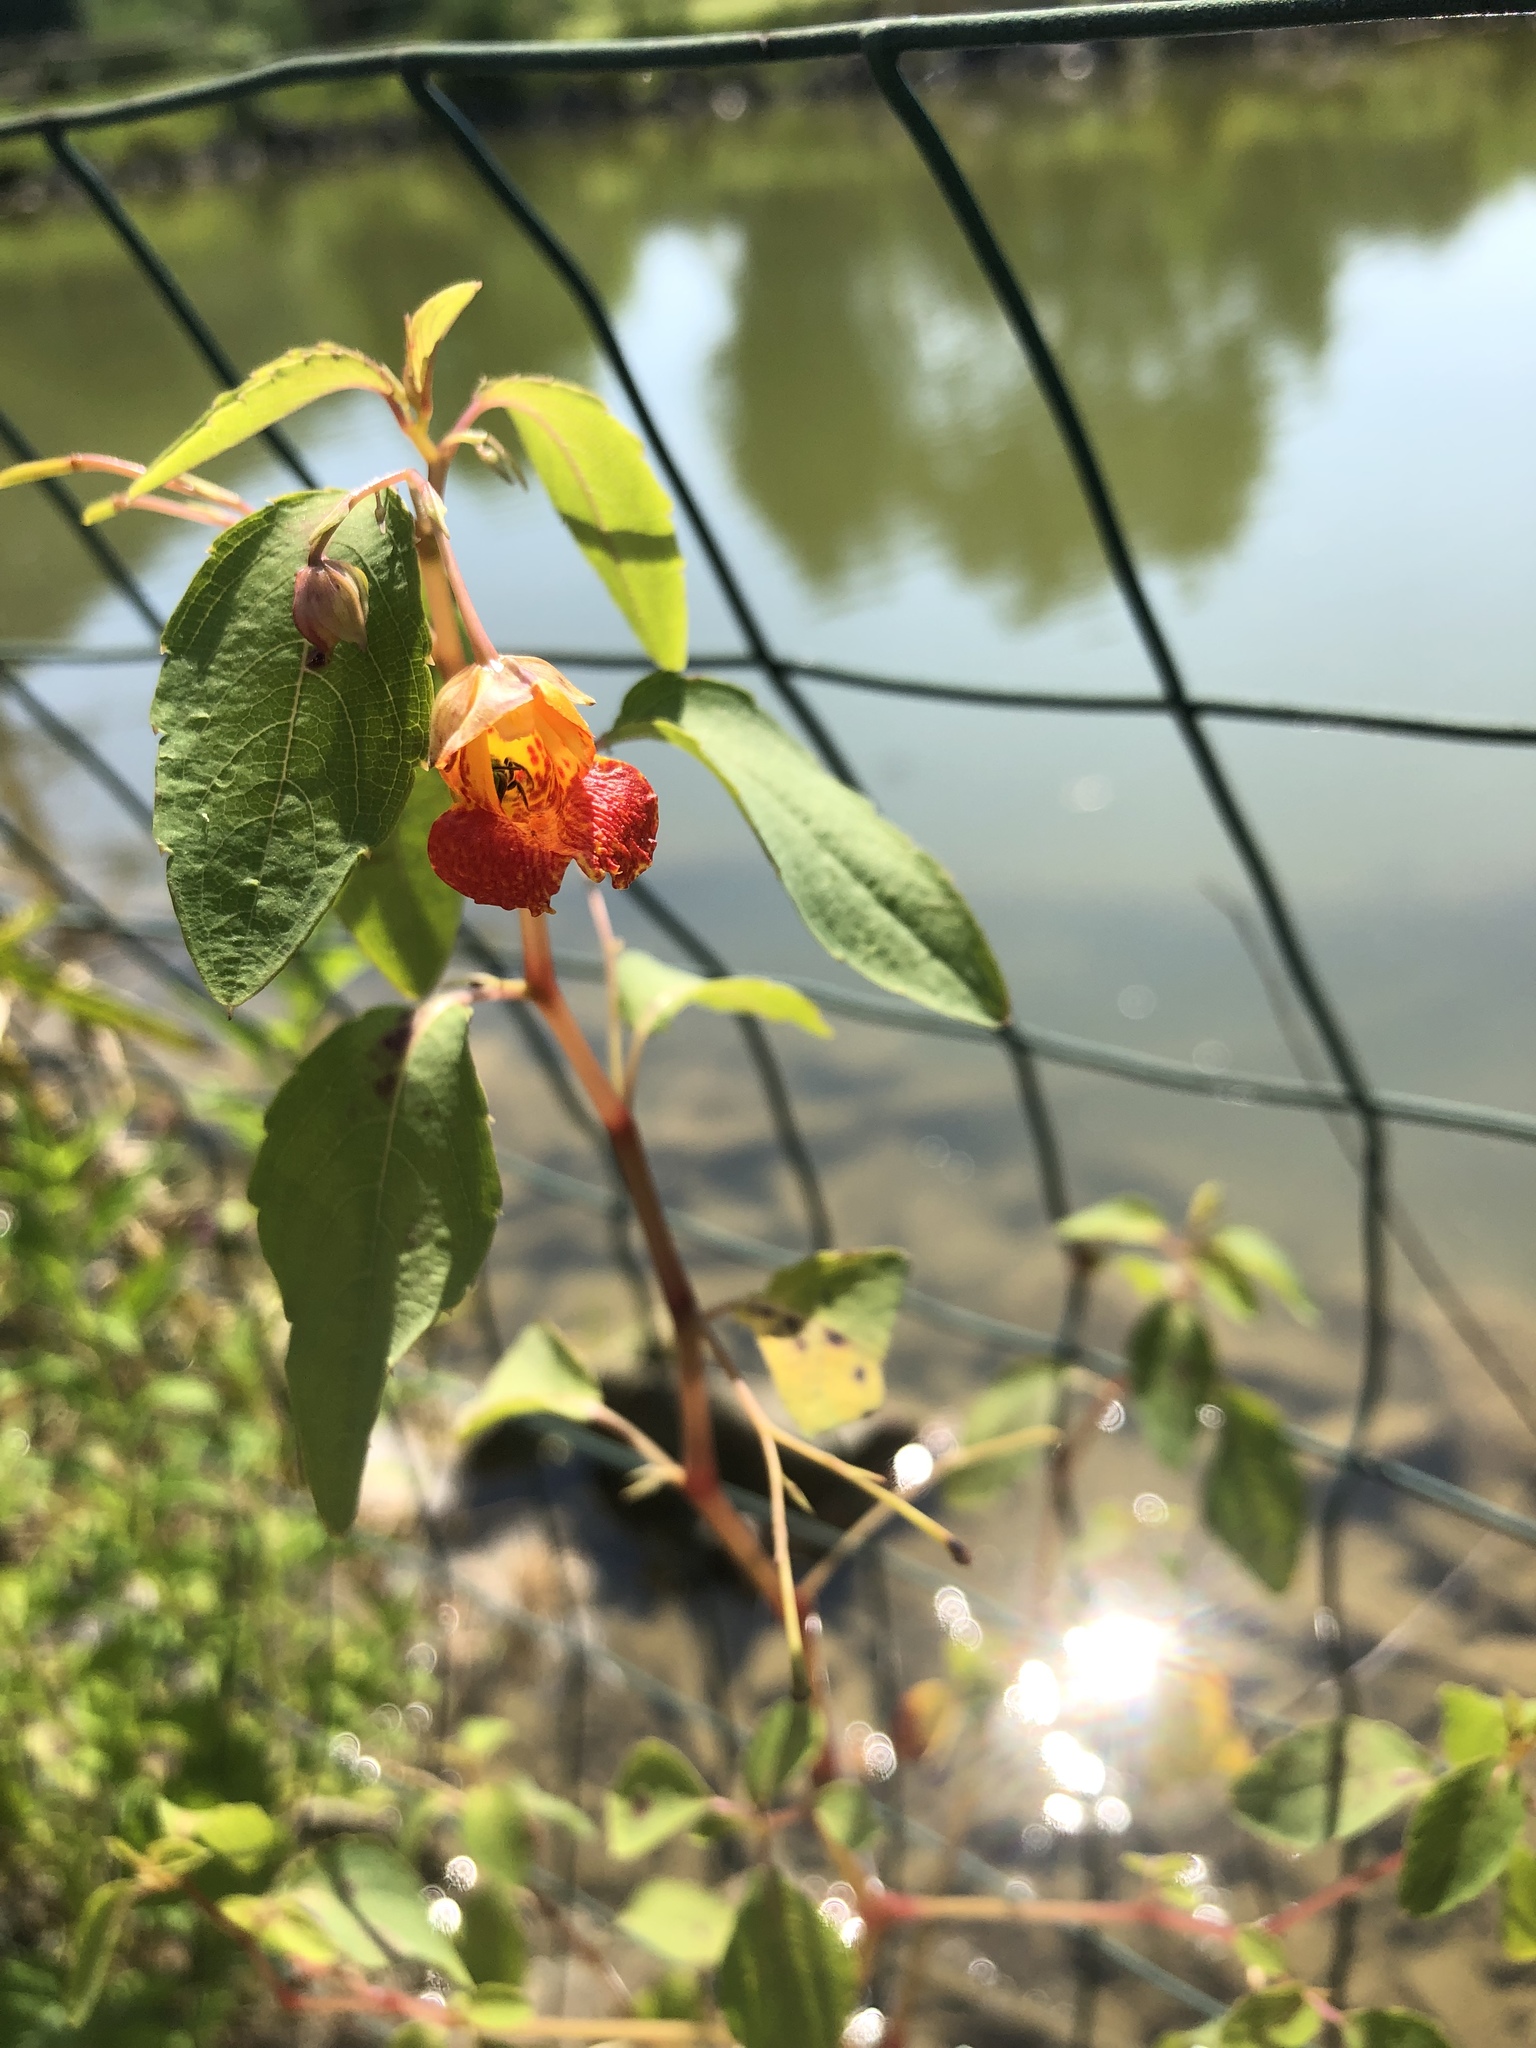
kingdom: Plantae
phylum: Tracheophyta
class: Magnoliopsida
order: Ericales
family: Balsaminaceae
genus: Impatiens
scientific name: Impatiens capensis
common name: Orange balsam
